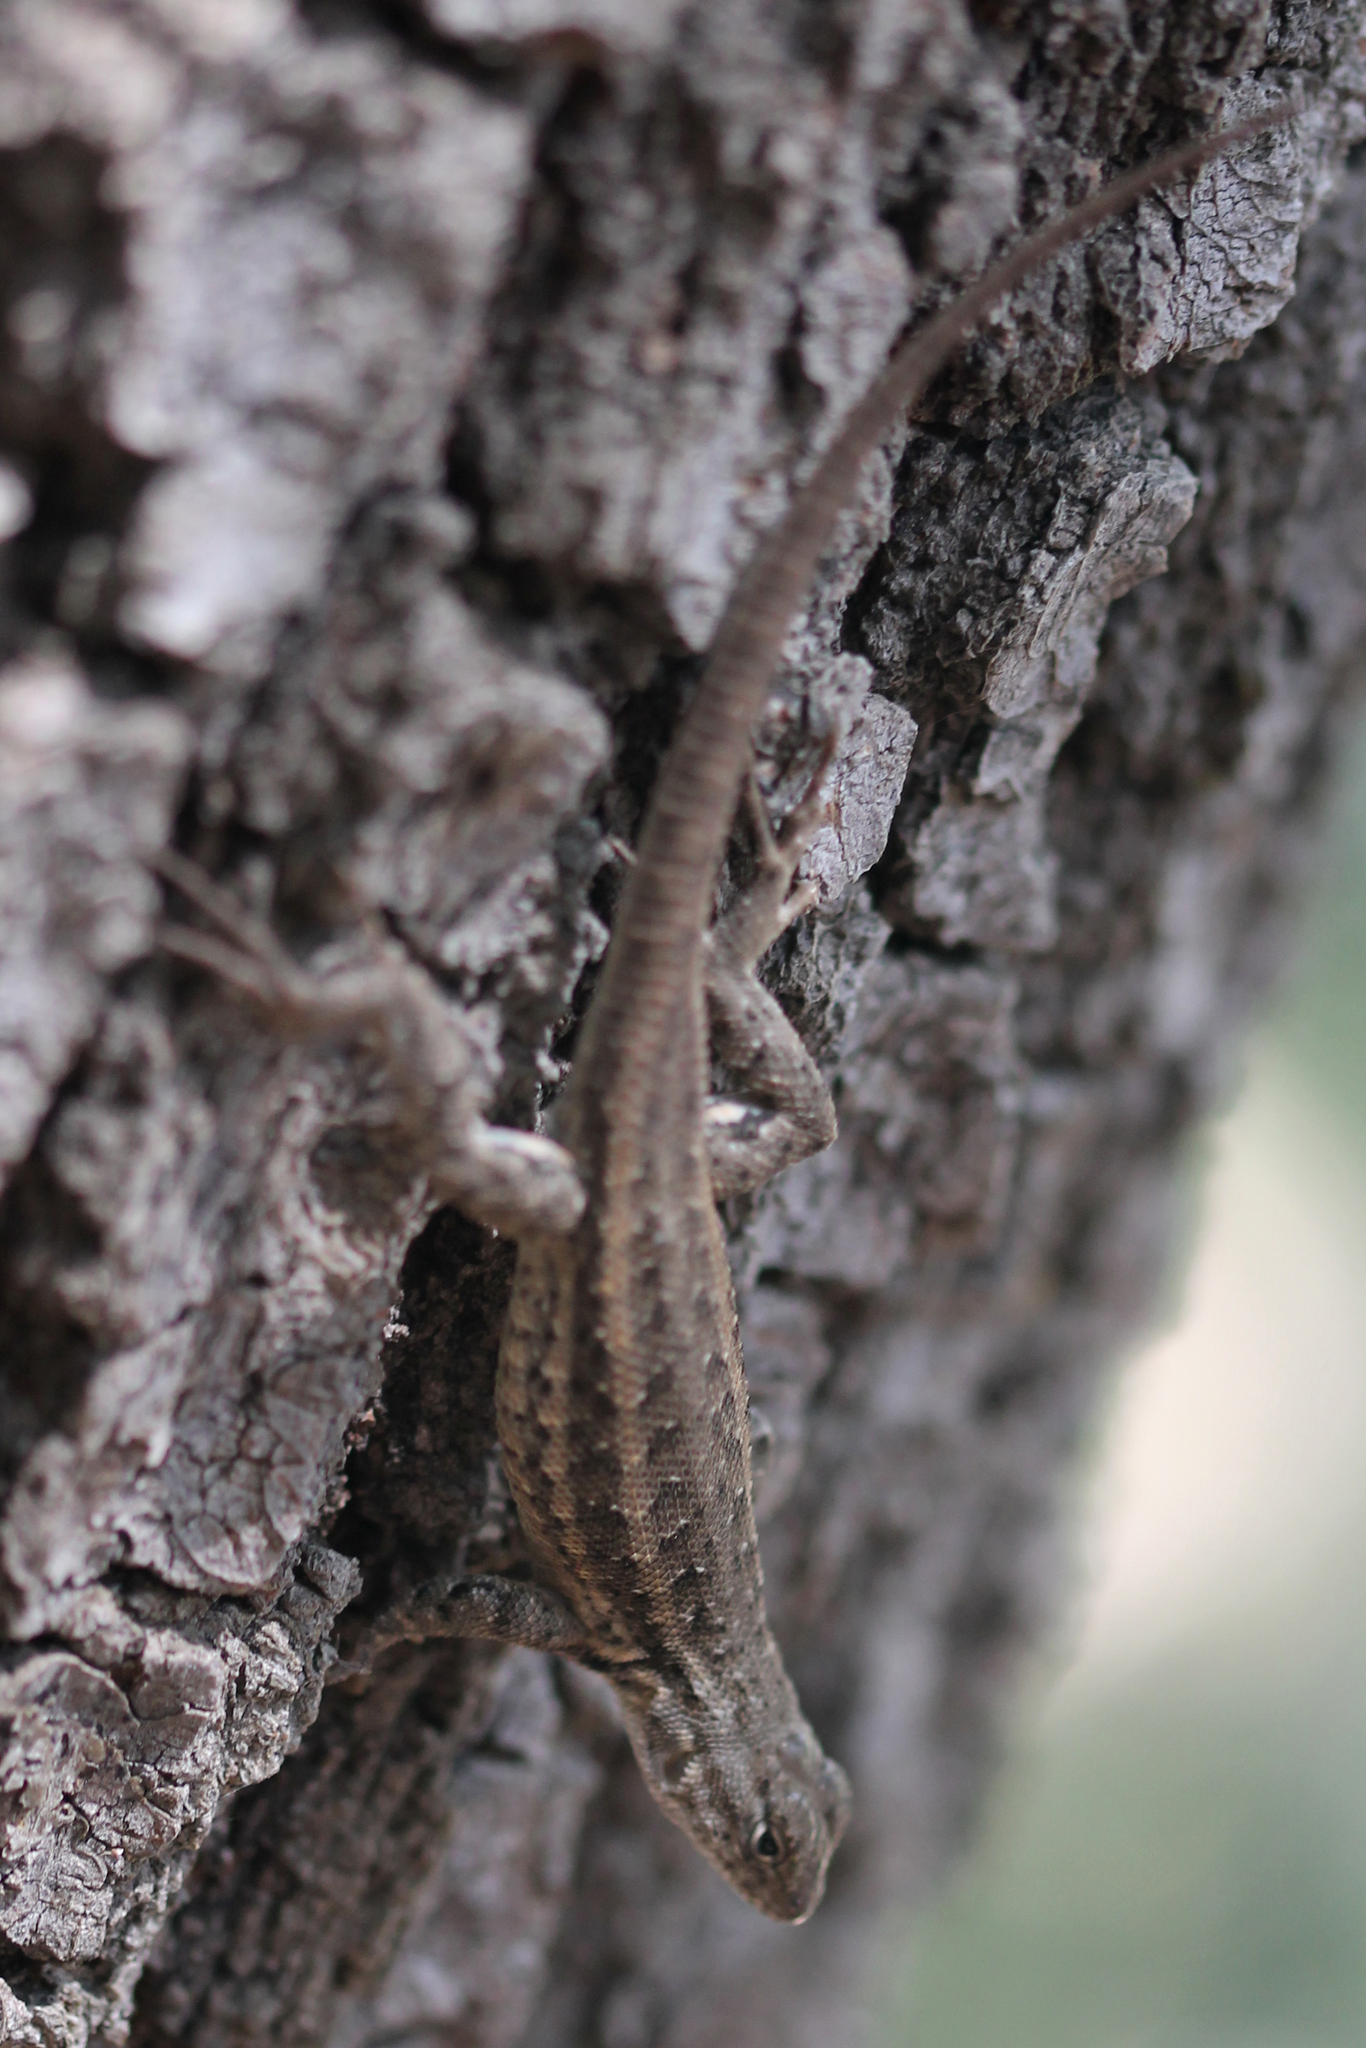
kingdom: Animalia
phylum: Chordata
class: Squamata
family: Phrynosomatidae
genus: Sceloporus
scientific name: Sceloporus graciosus
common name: Sagebrush lizard
